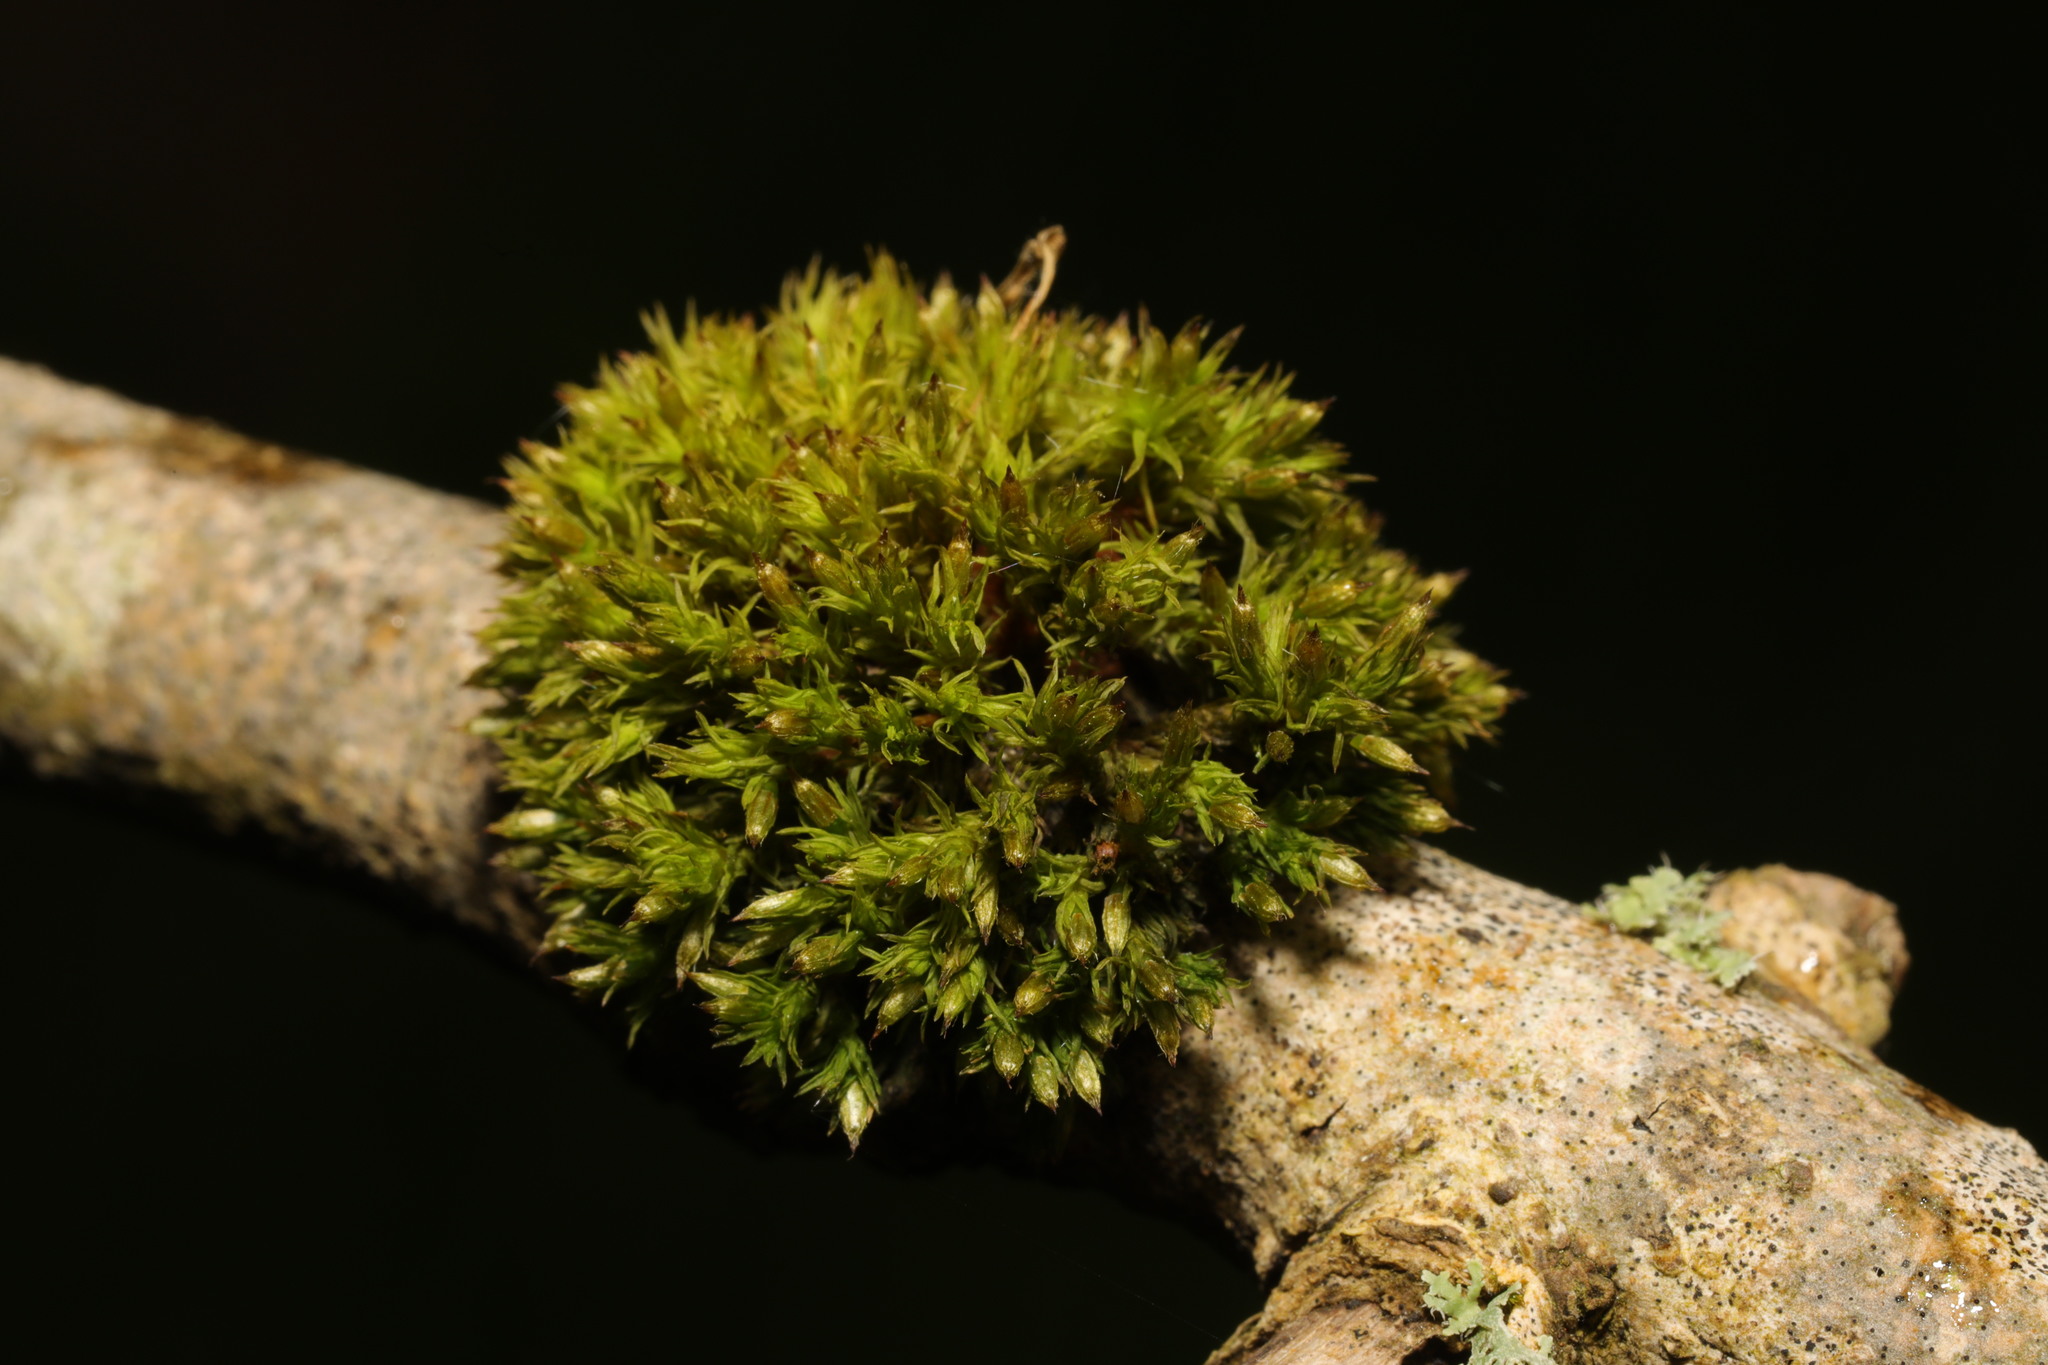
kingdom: Plantae
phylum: Bryophyta
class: Bryopsida
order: Orthotrichales
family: Orthotrichaceae
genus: Orthotrichum
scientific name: Orthotrichum stramineum
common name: Straw bristle-moss
